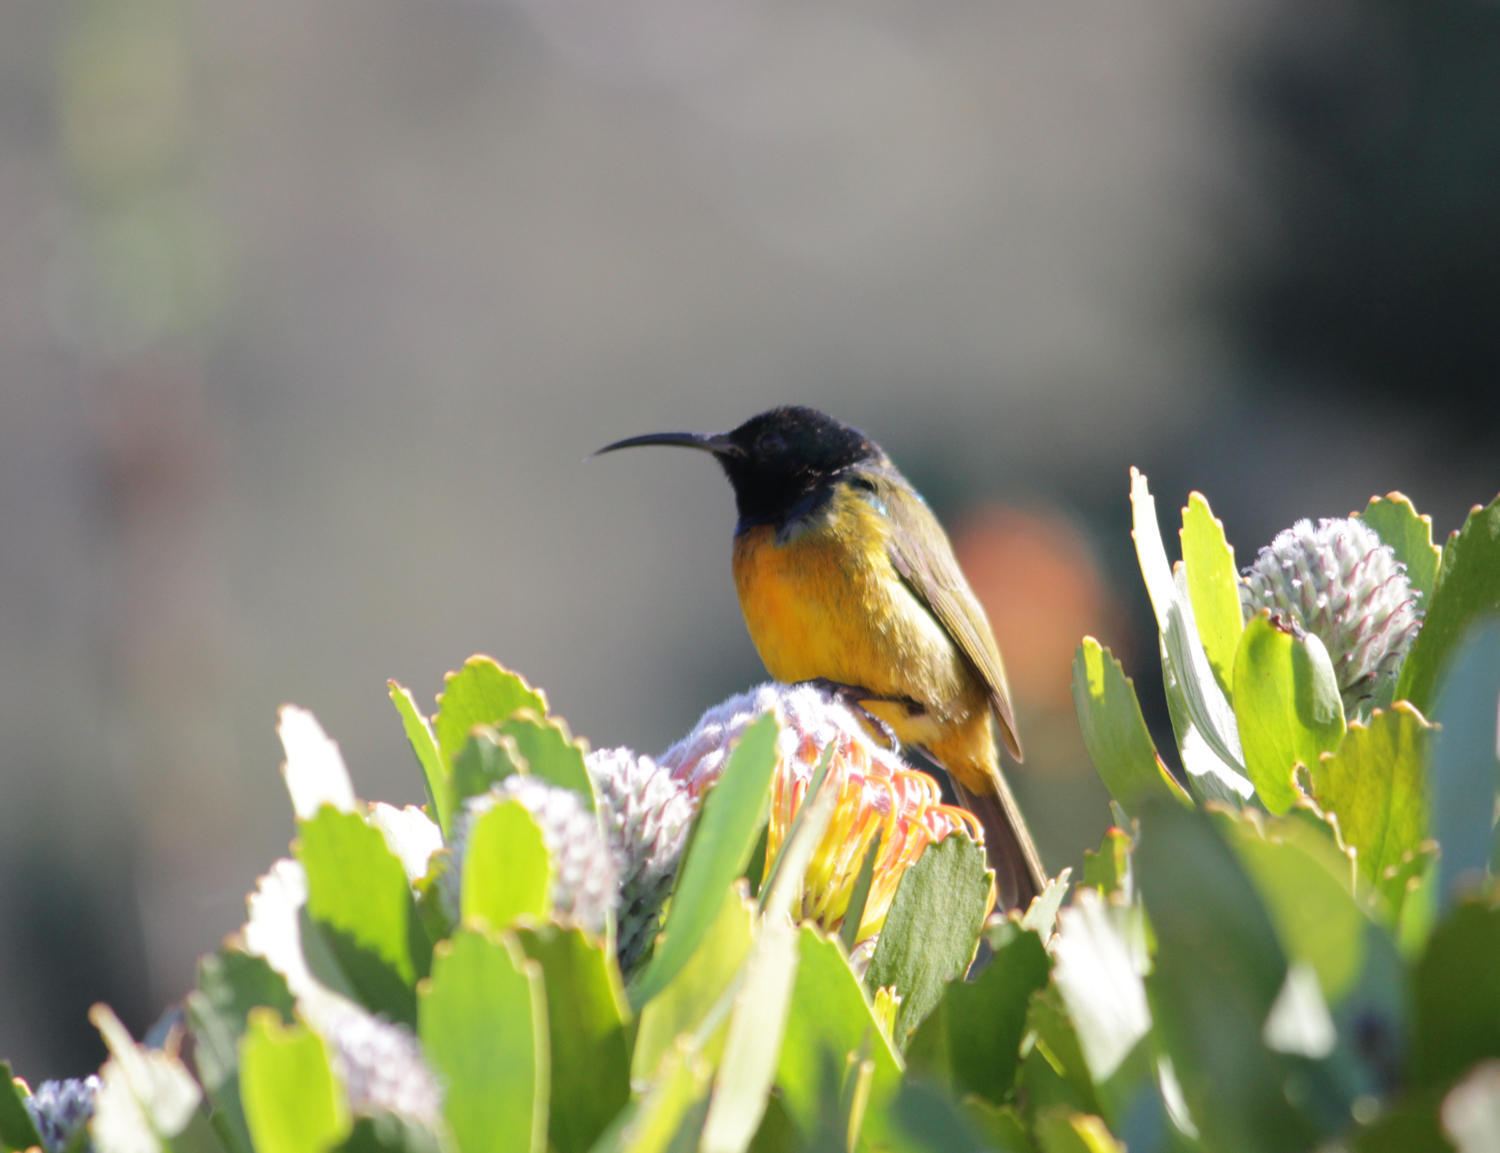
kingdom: Animalia
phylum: Chordata
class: Aves
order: Passeriformes
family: Nectariniidae
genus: Anthobaphes
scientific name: Anthobaphes violacea
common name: Orange-breasted sunbird
